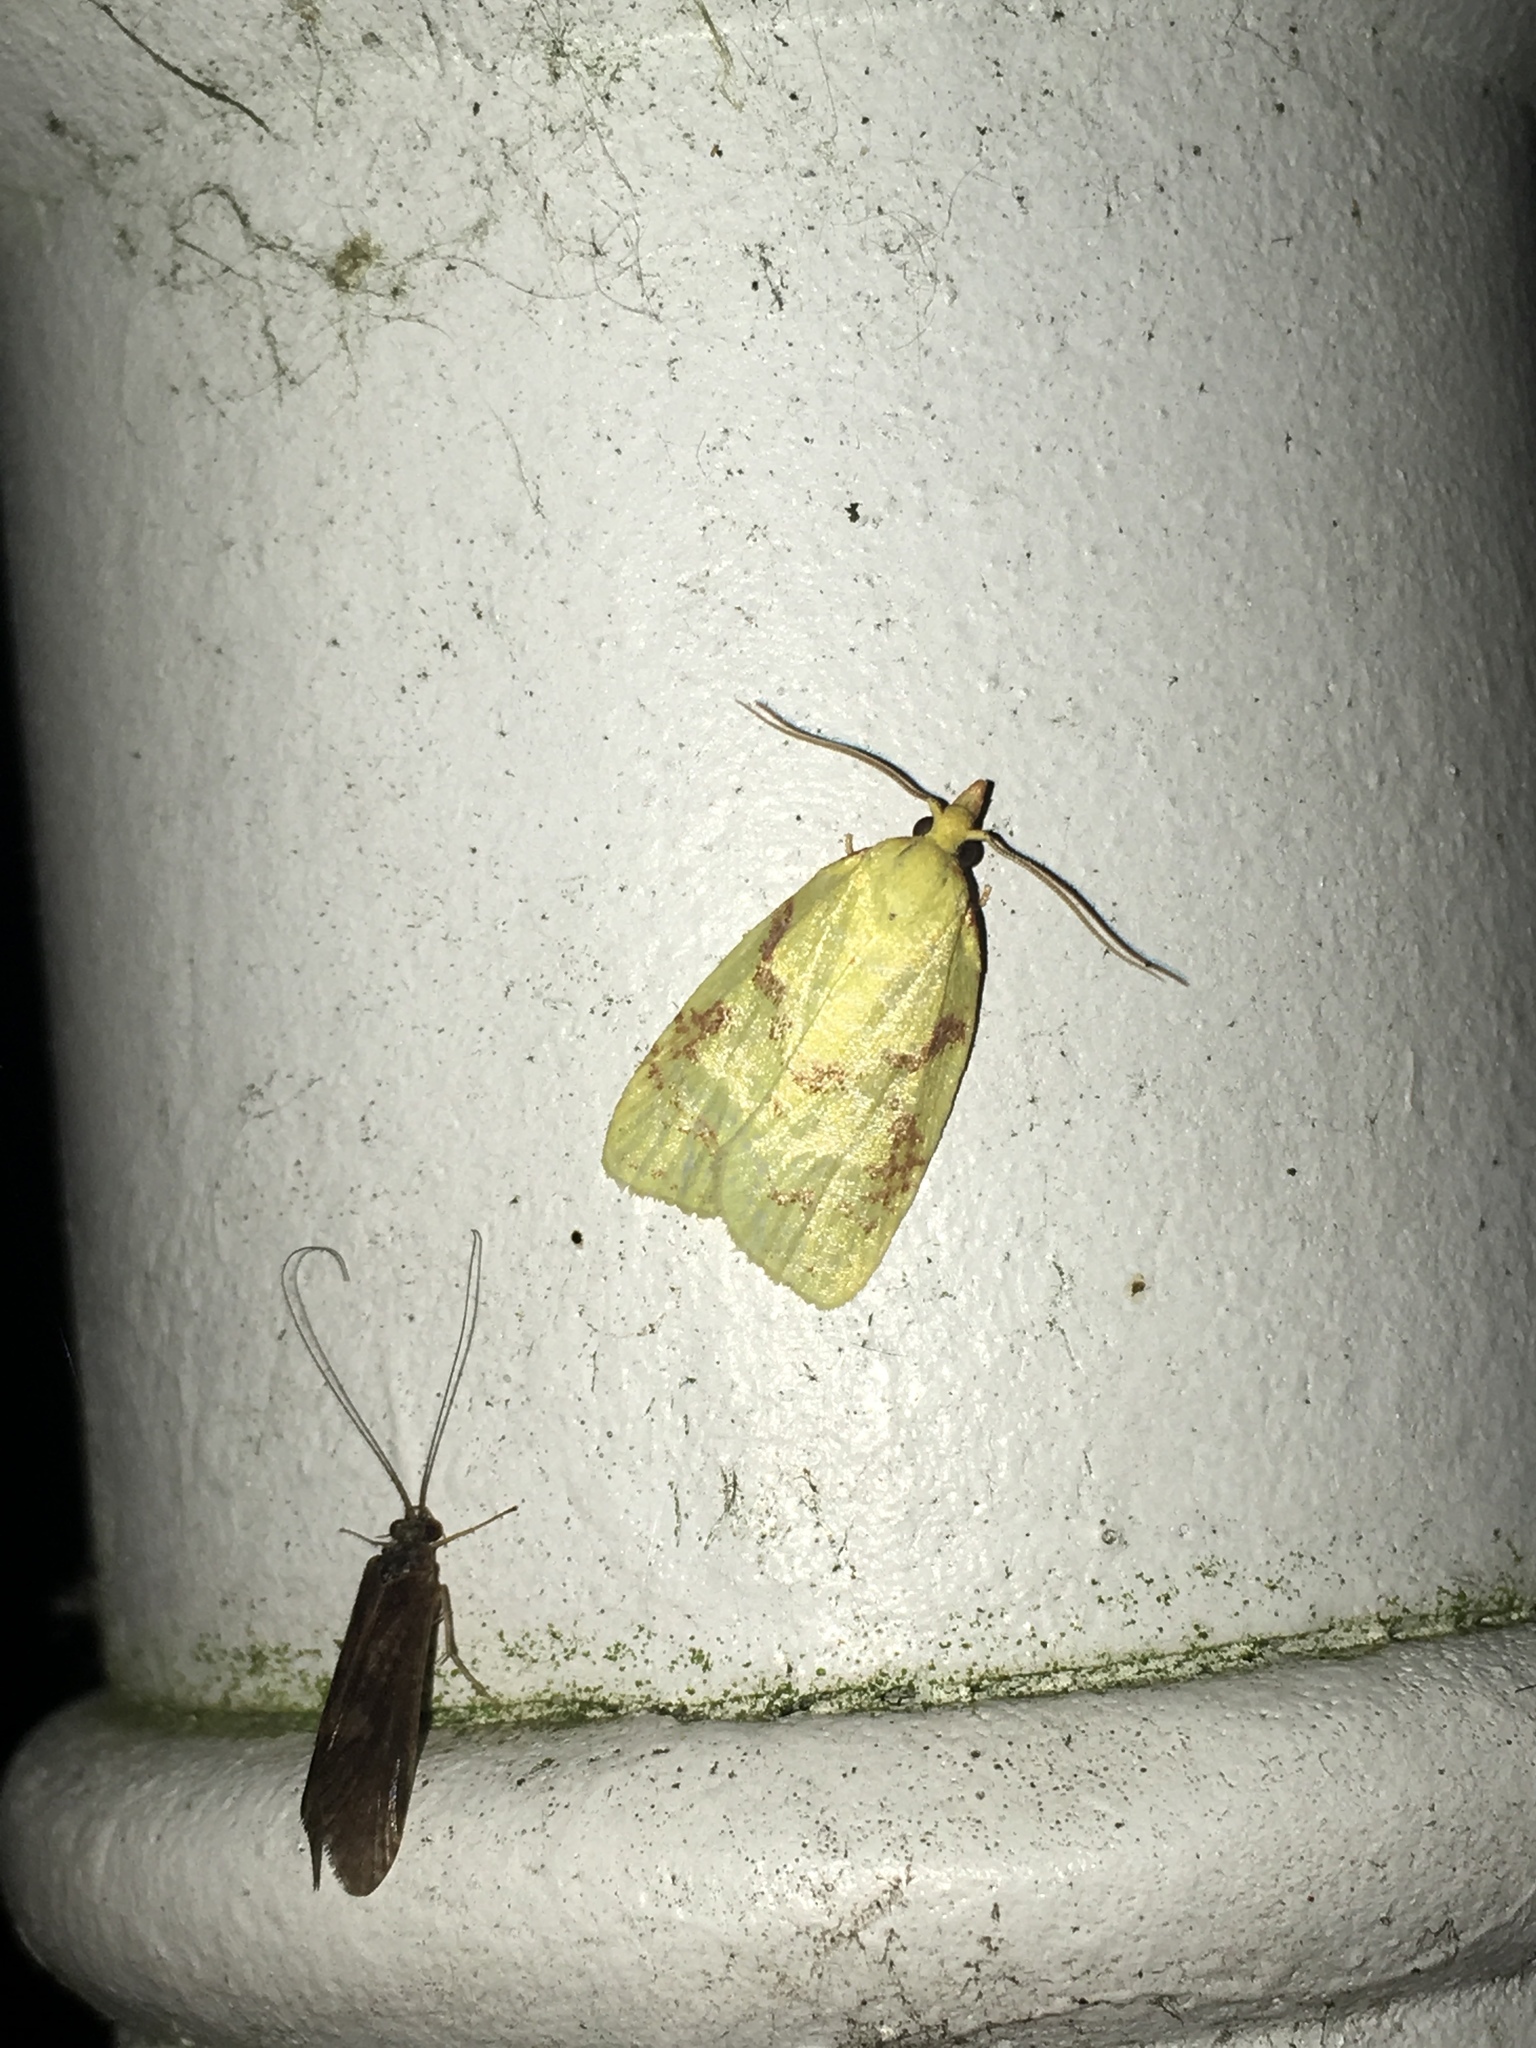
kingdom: Animalia
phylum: Arthropoda
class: Insecta
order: Lepidoptera
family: Tortricidae
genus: Cenopis
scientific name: Cenopis pettitana
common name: Maple-basswood leafroller moth
